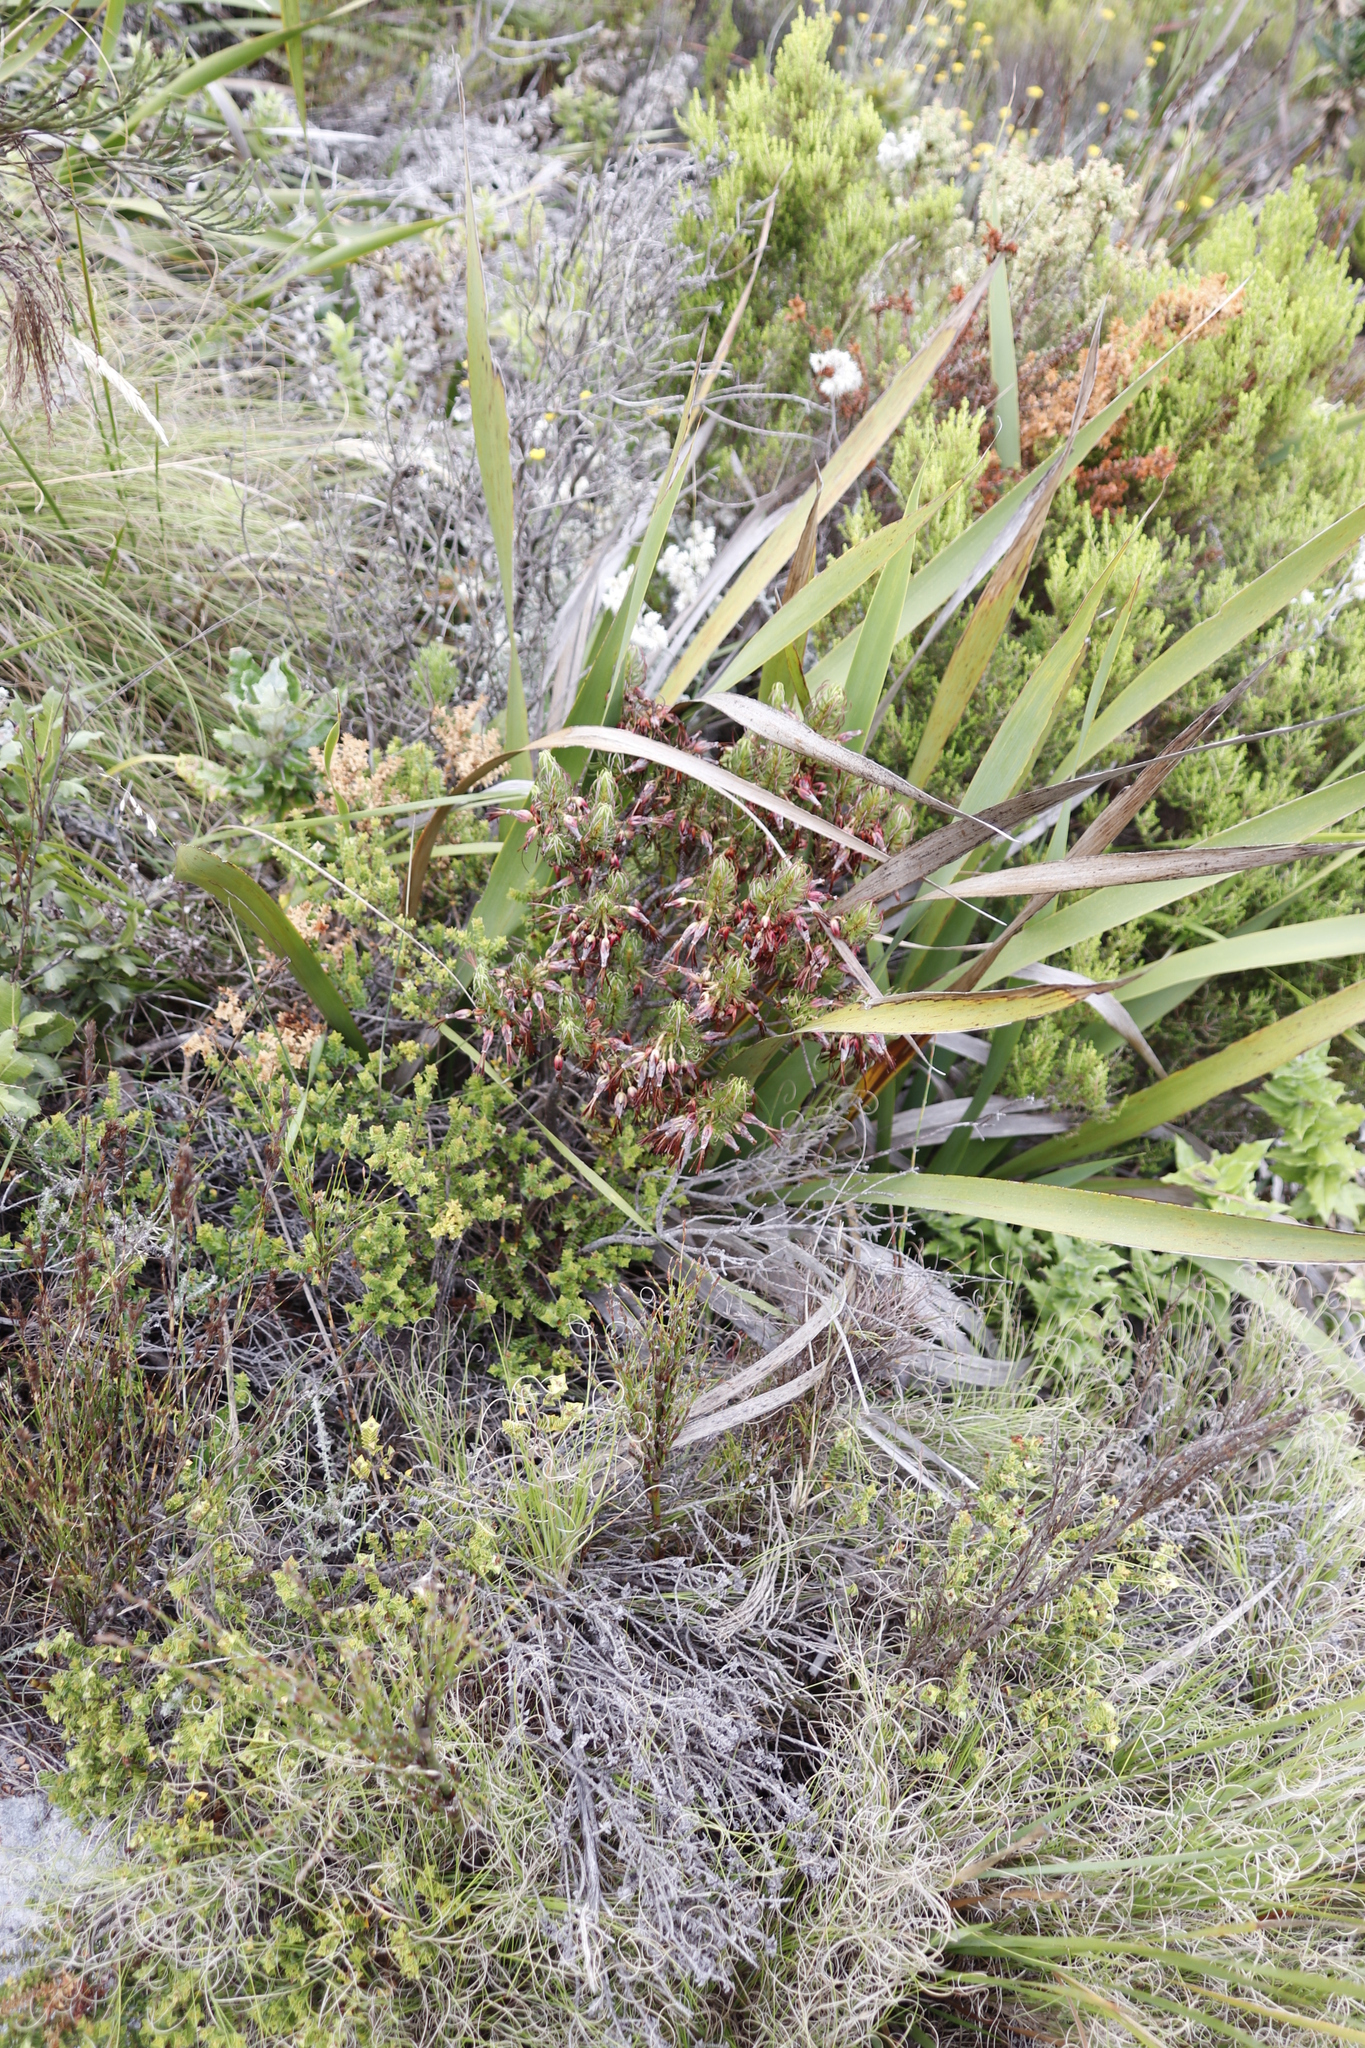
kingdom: Plantae
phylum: Tracheophyta
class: Magnoliopsida
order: Ericales
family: Ericaceae
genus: Erica
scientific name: Erica plukenetii
